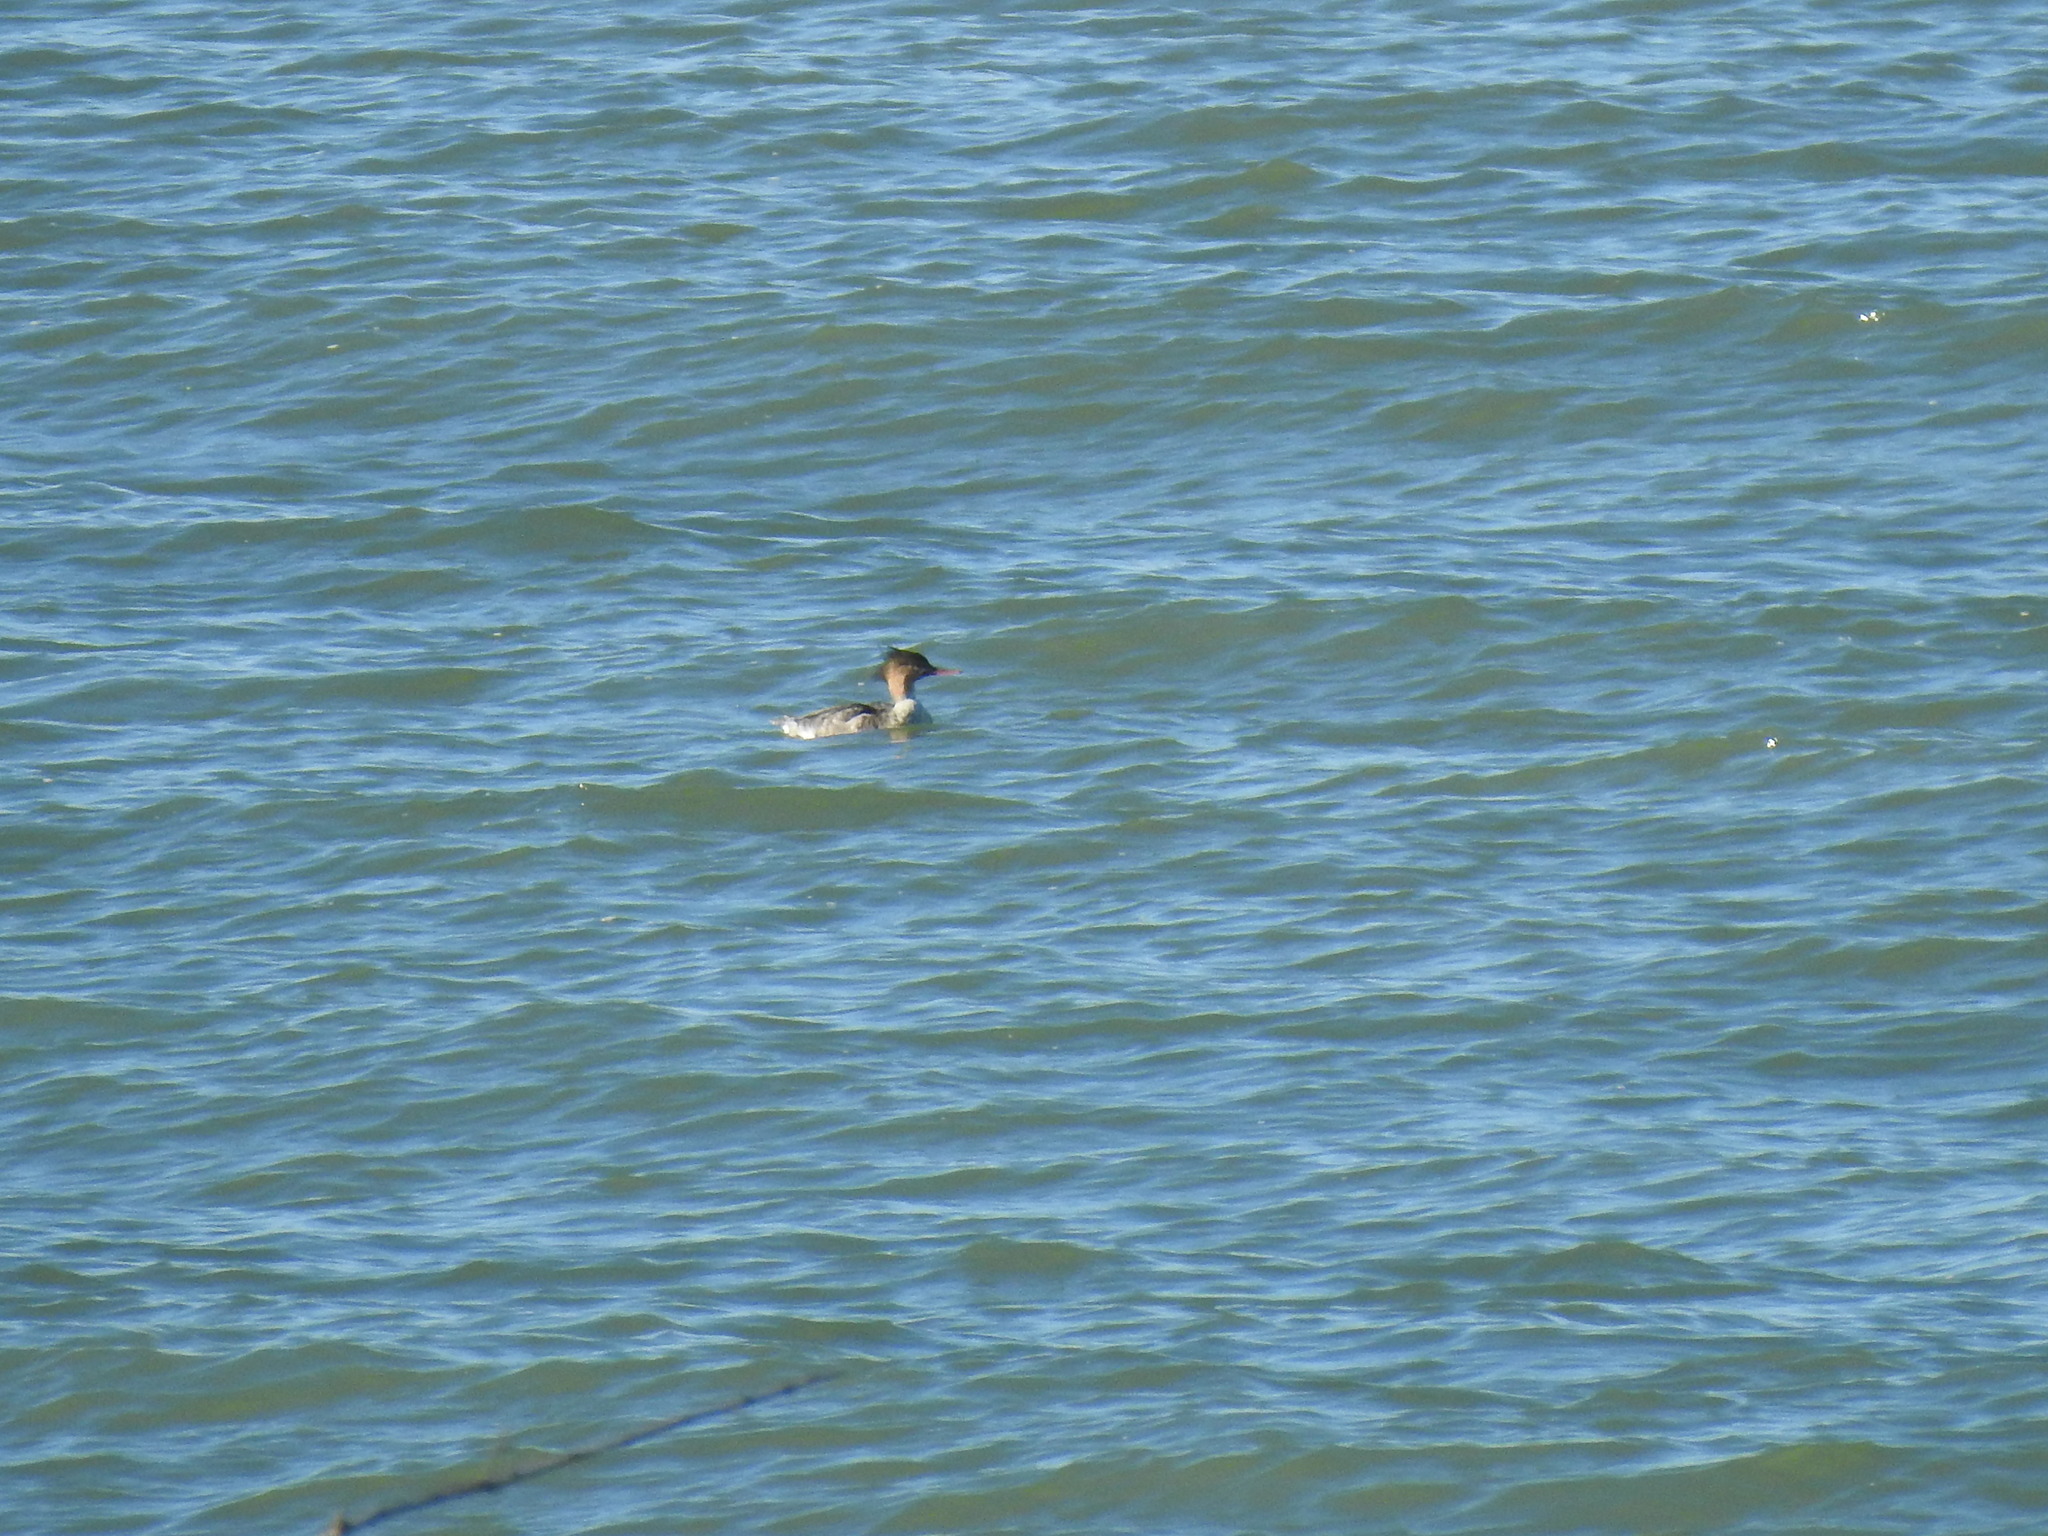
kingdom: Animalia
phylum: Chordata
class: Aves
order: Anseriformes
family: Anatidae
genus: Mergus
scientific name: Mergus serrator
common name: Red-breasted merganser
